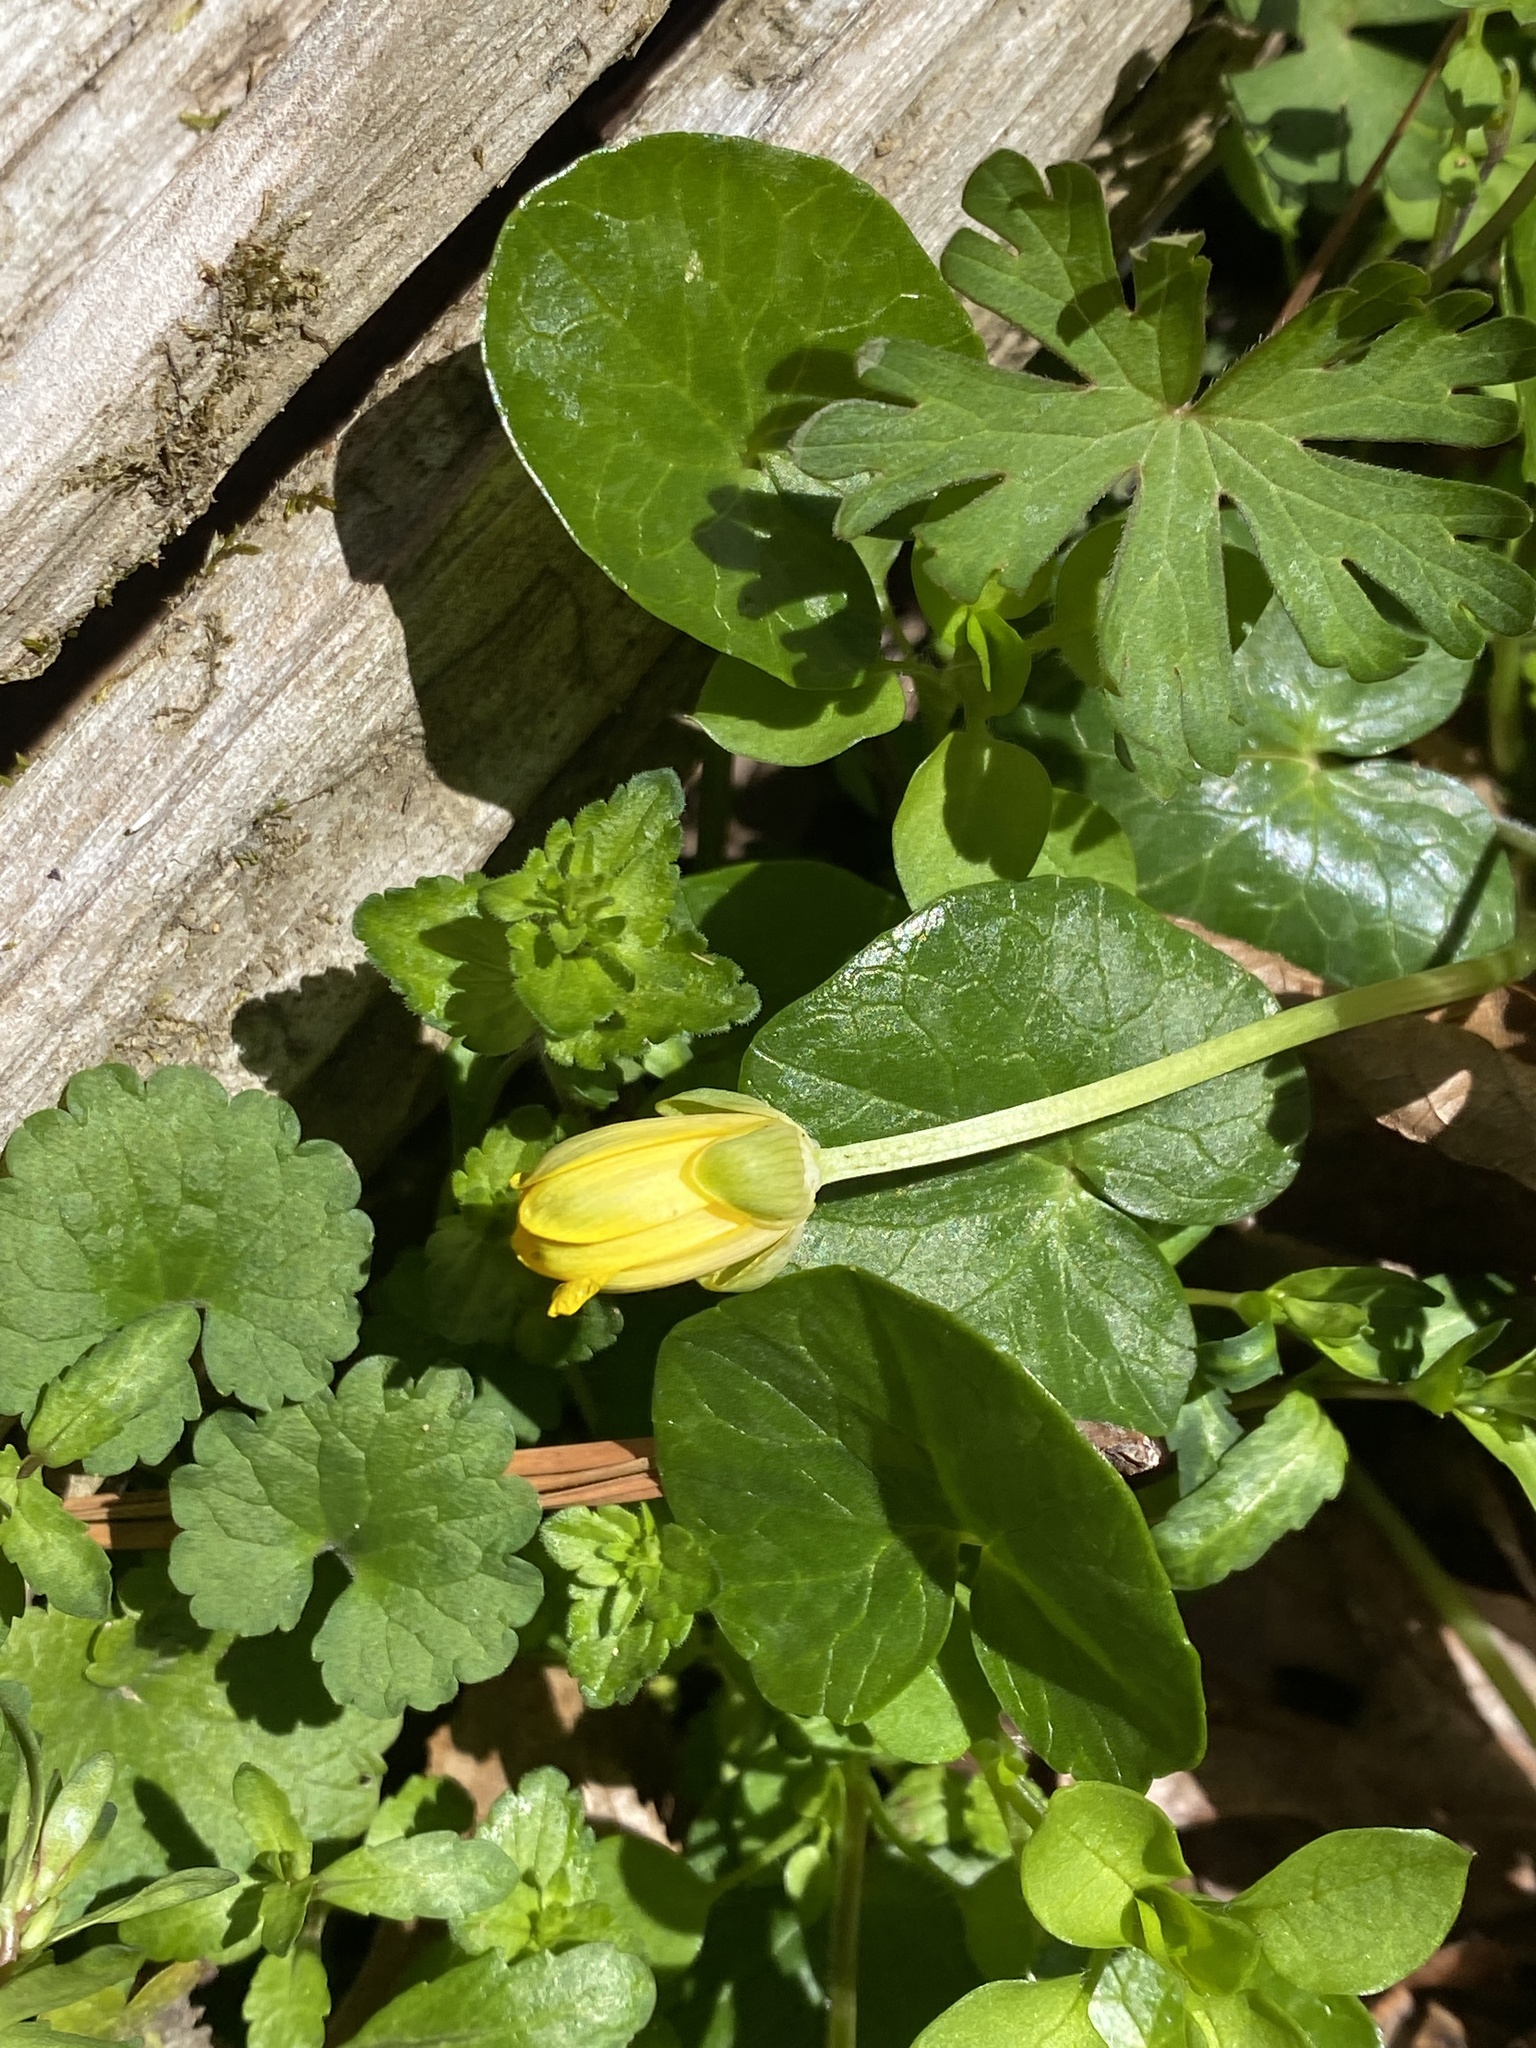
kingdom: Plantae
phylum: Tracheophyta
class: Magnoliopsida
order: Ranunculales
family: Ranunculaceae
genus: Ficaria
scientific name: Ficaria verna
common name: Lesser celandine
